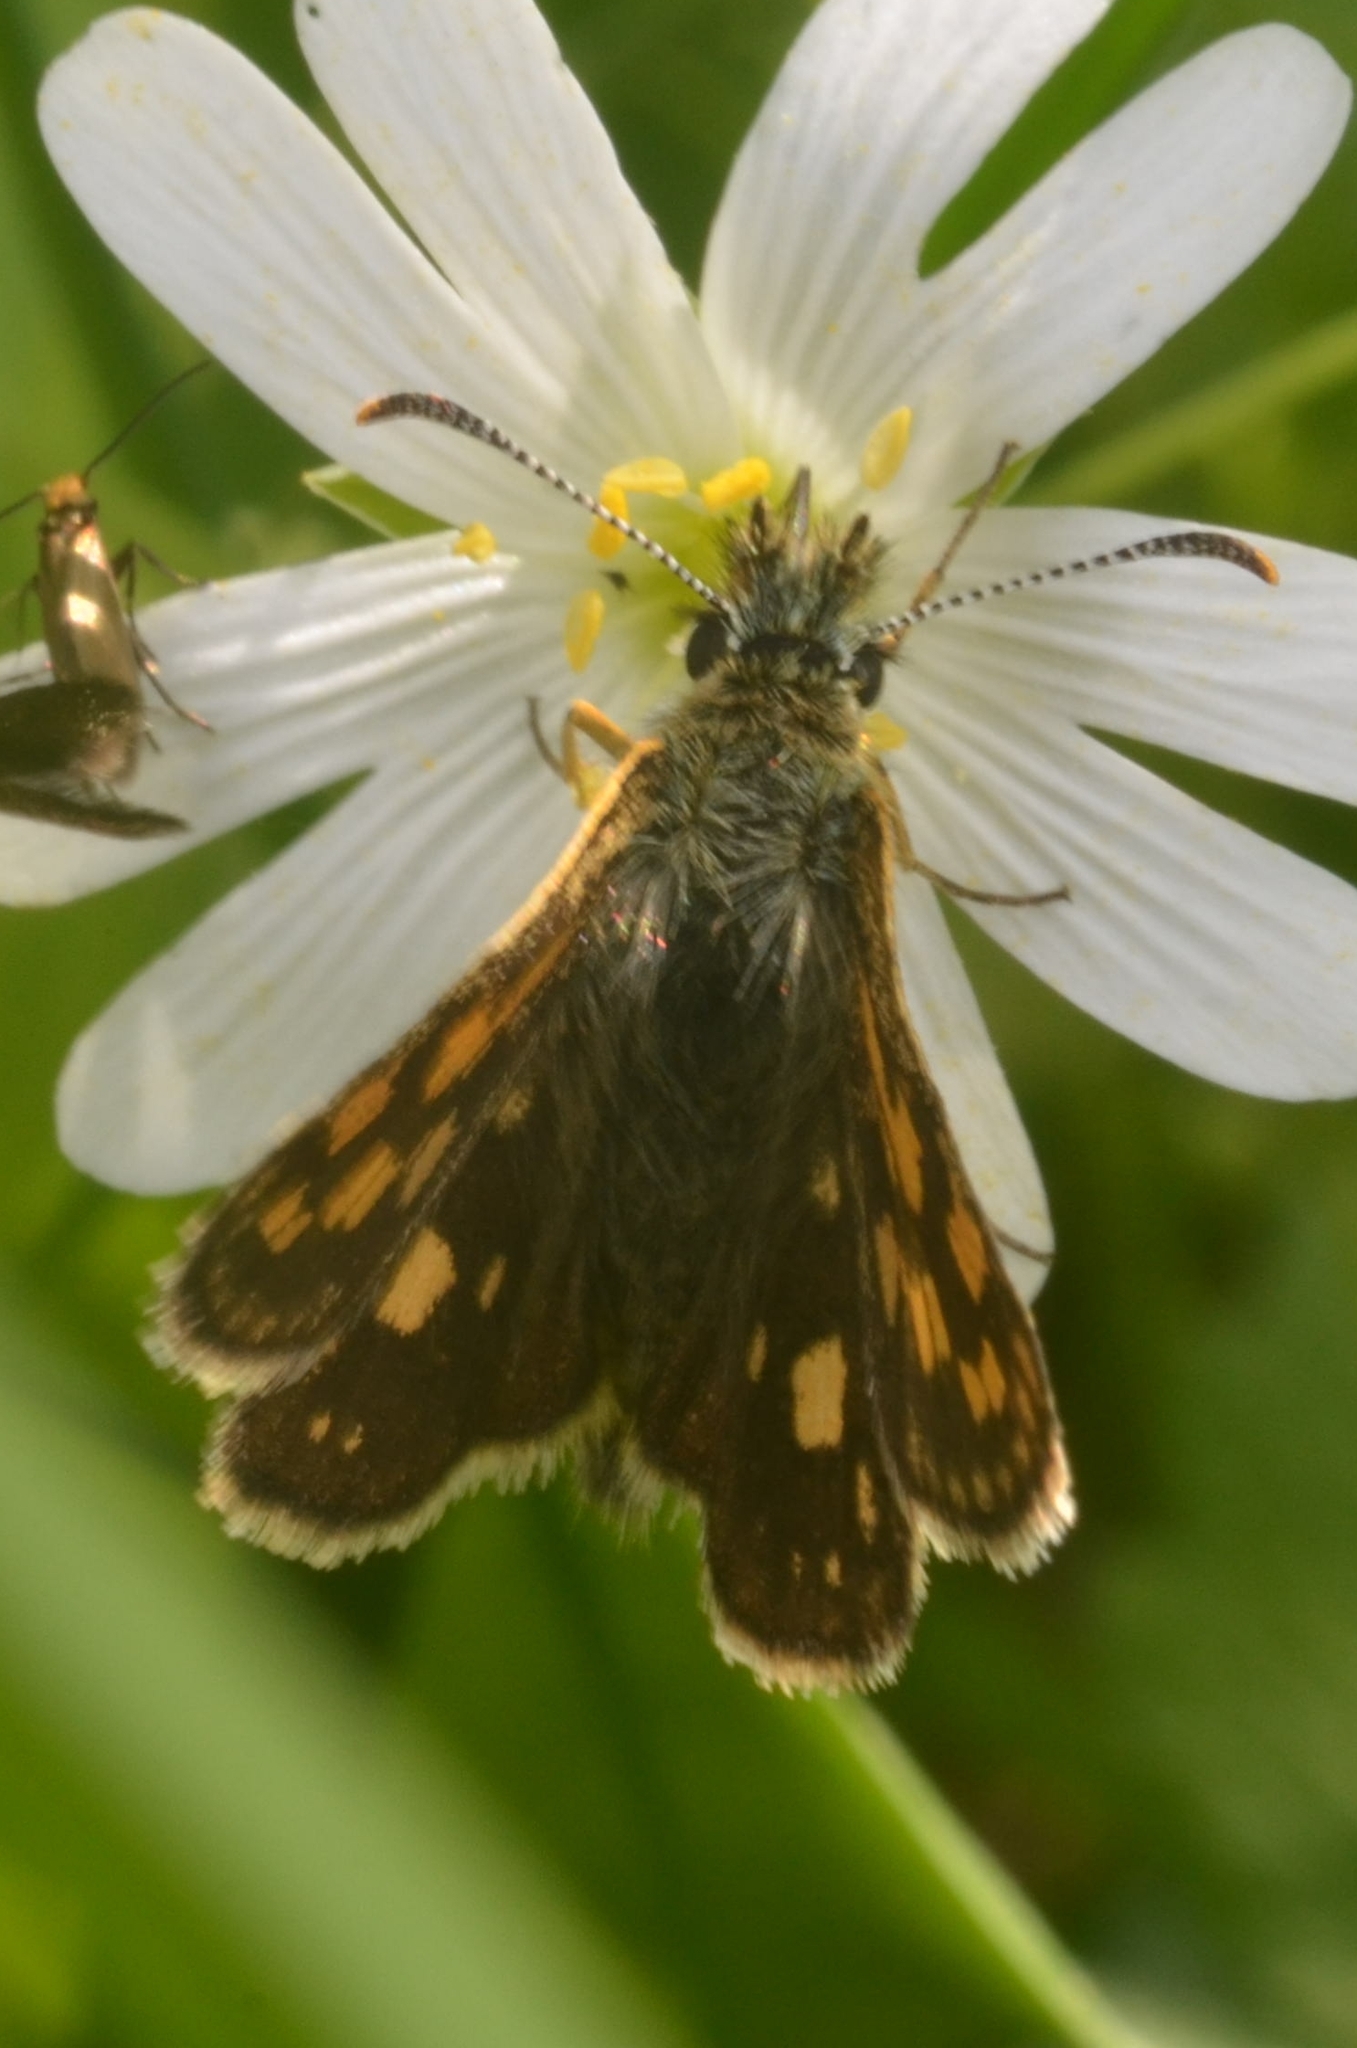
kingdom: Animalia
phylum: Arthropoda
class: Insecta
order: Lepidoptera
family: Hesperiidae
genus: Carterocephalus
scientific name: Carterocephalus palaemon
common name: Chequered skipper
